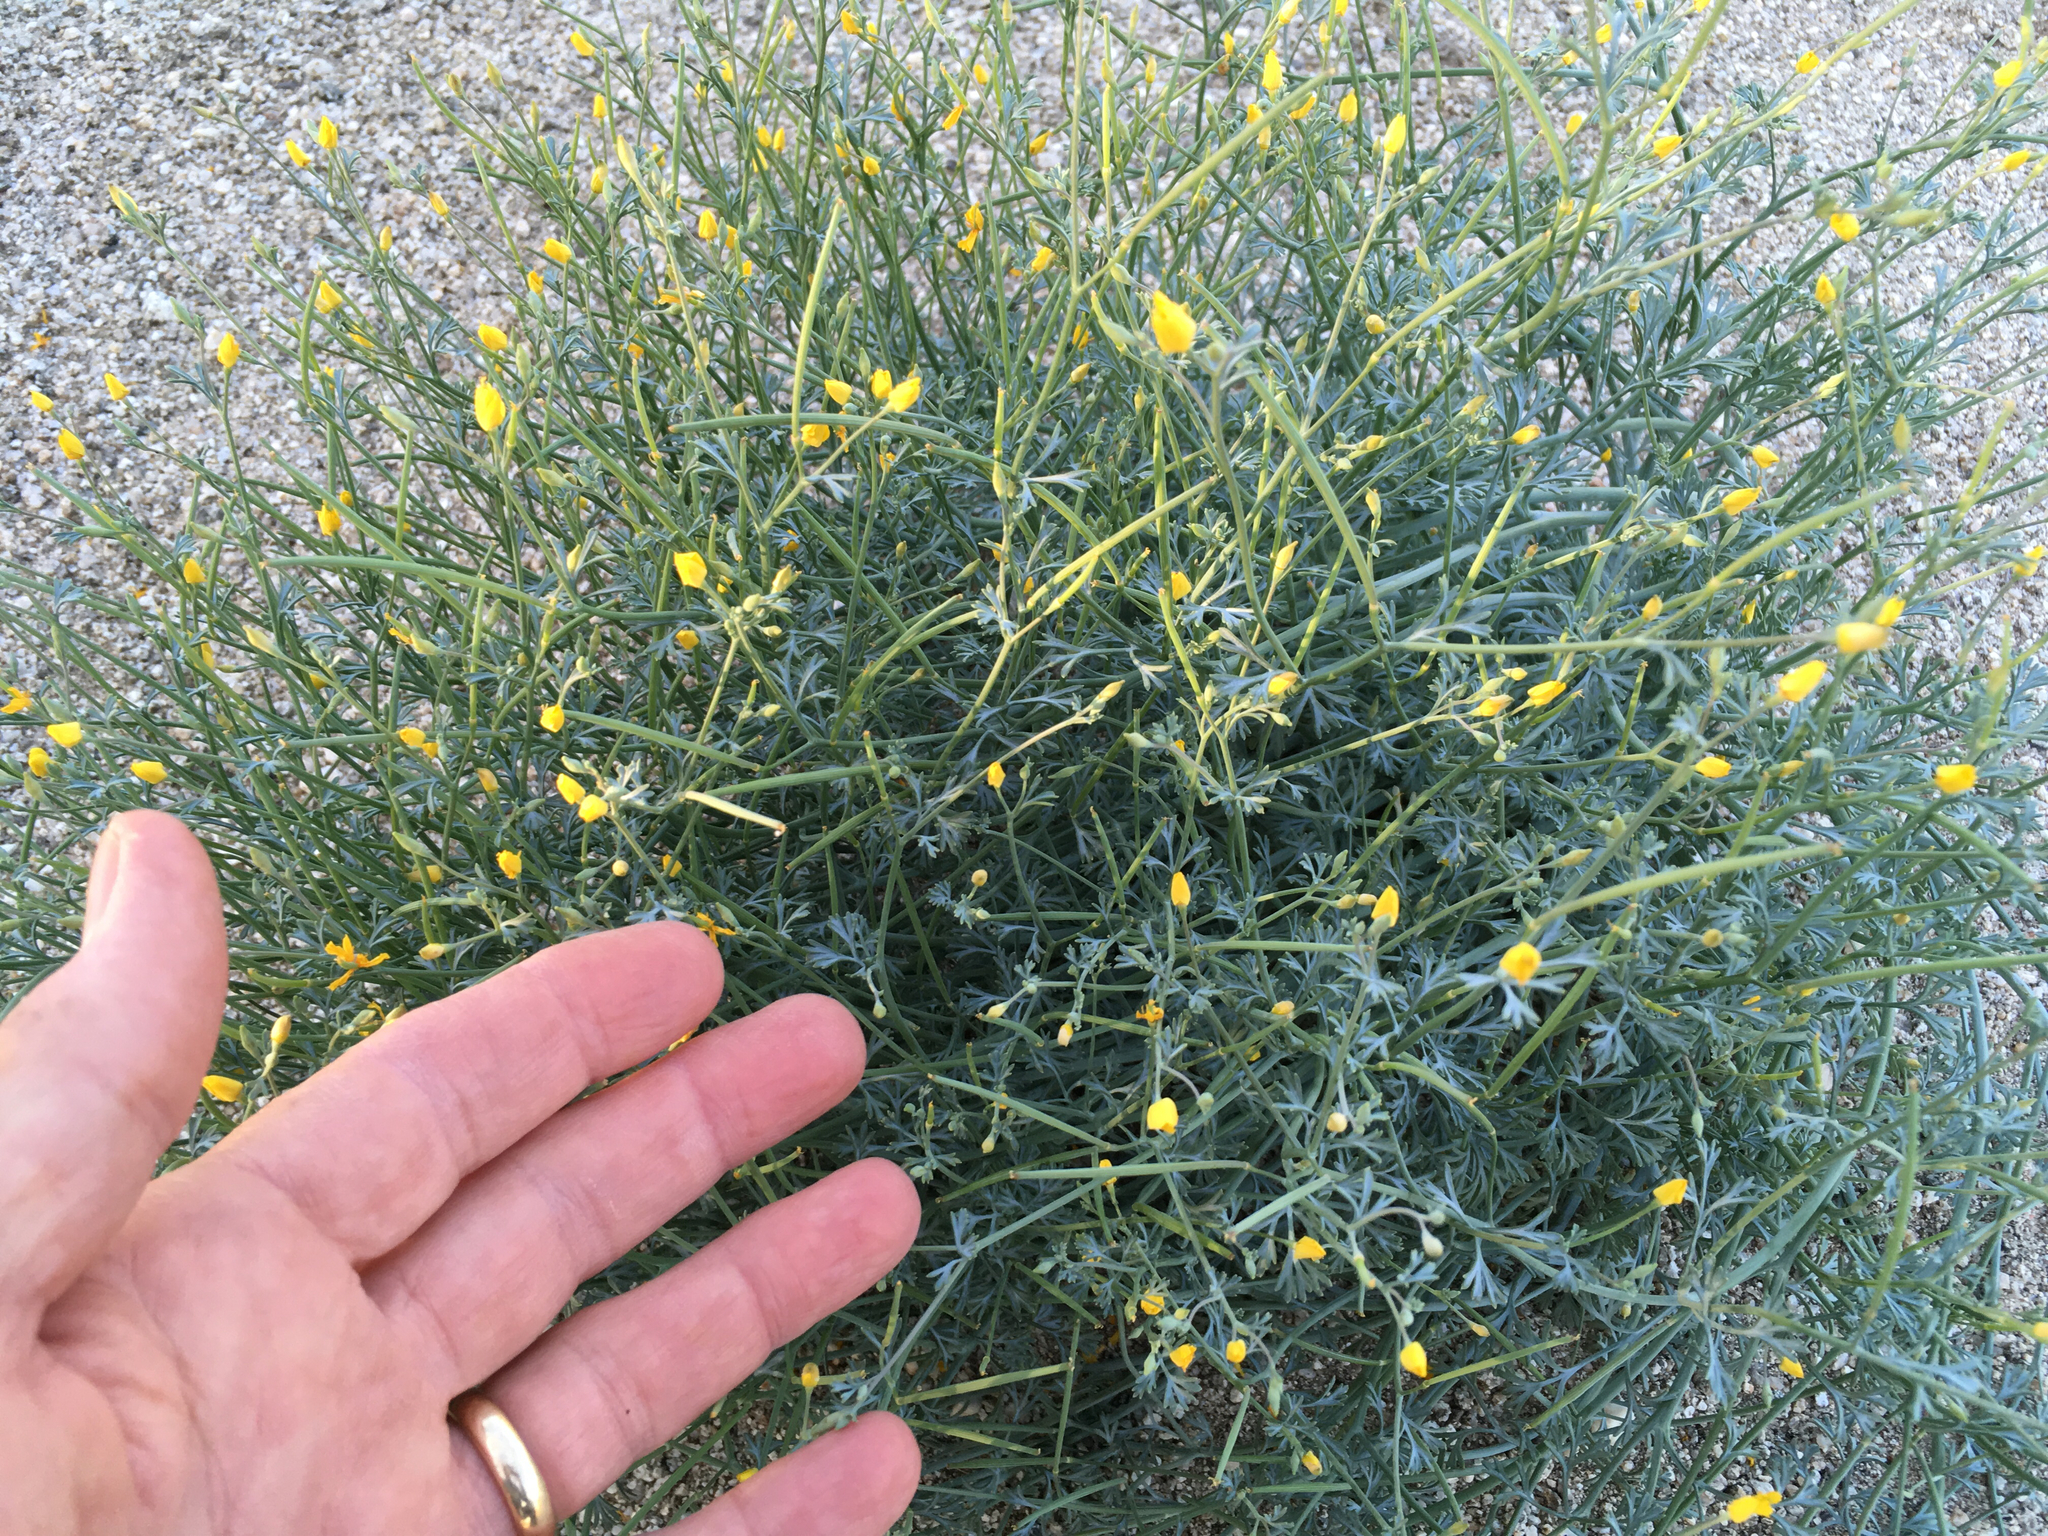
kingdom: Plantae
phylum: Tracheophyta
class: Magnoliopsida
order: Ranunculales
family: Papaveraceae
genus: Eschscholzia
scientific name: Eschscholzia minutiflora
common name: Small-flower california-poppy
